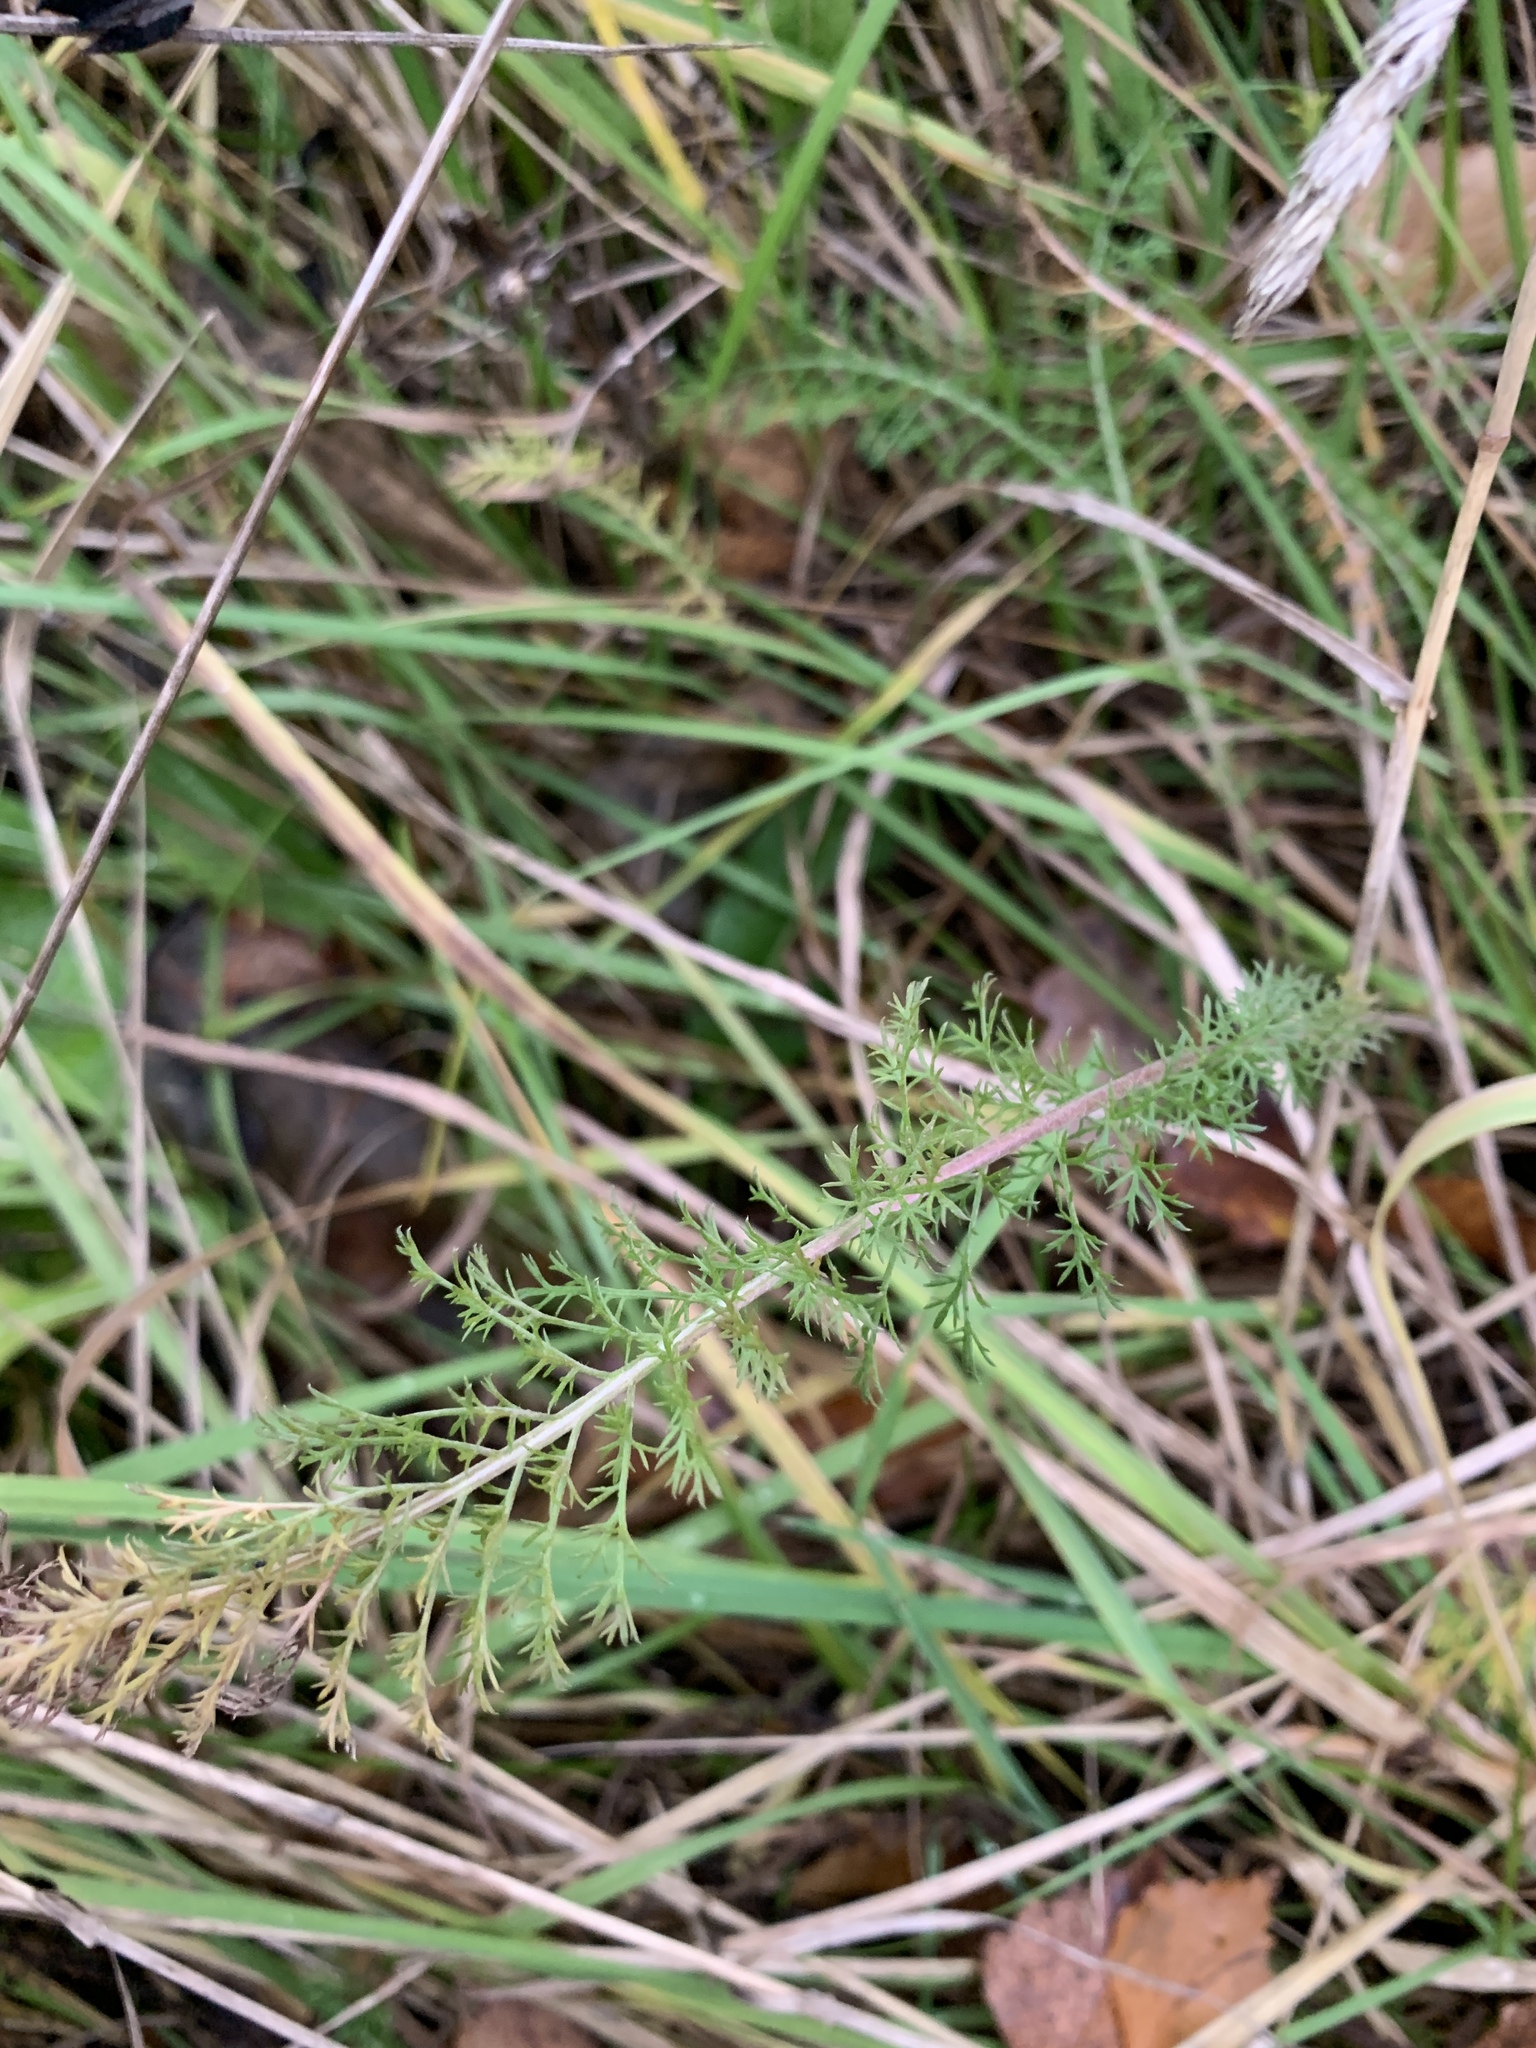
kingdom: Plantae
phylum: Tracheophyta
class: Magnoliopsida
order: Asterales
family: Asteraceae
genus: Achillea
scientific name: Achillea millefolium
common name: Yarrow
